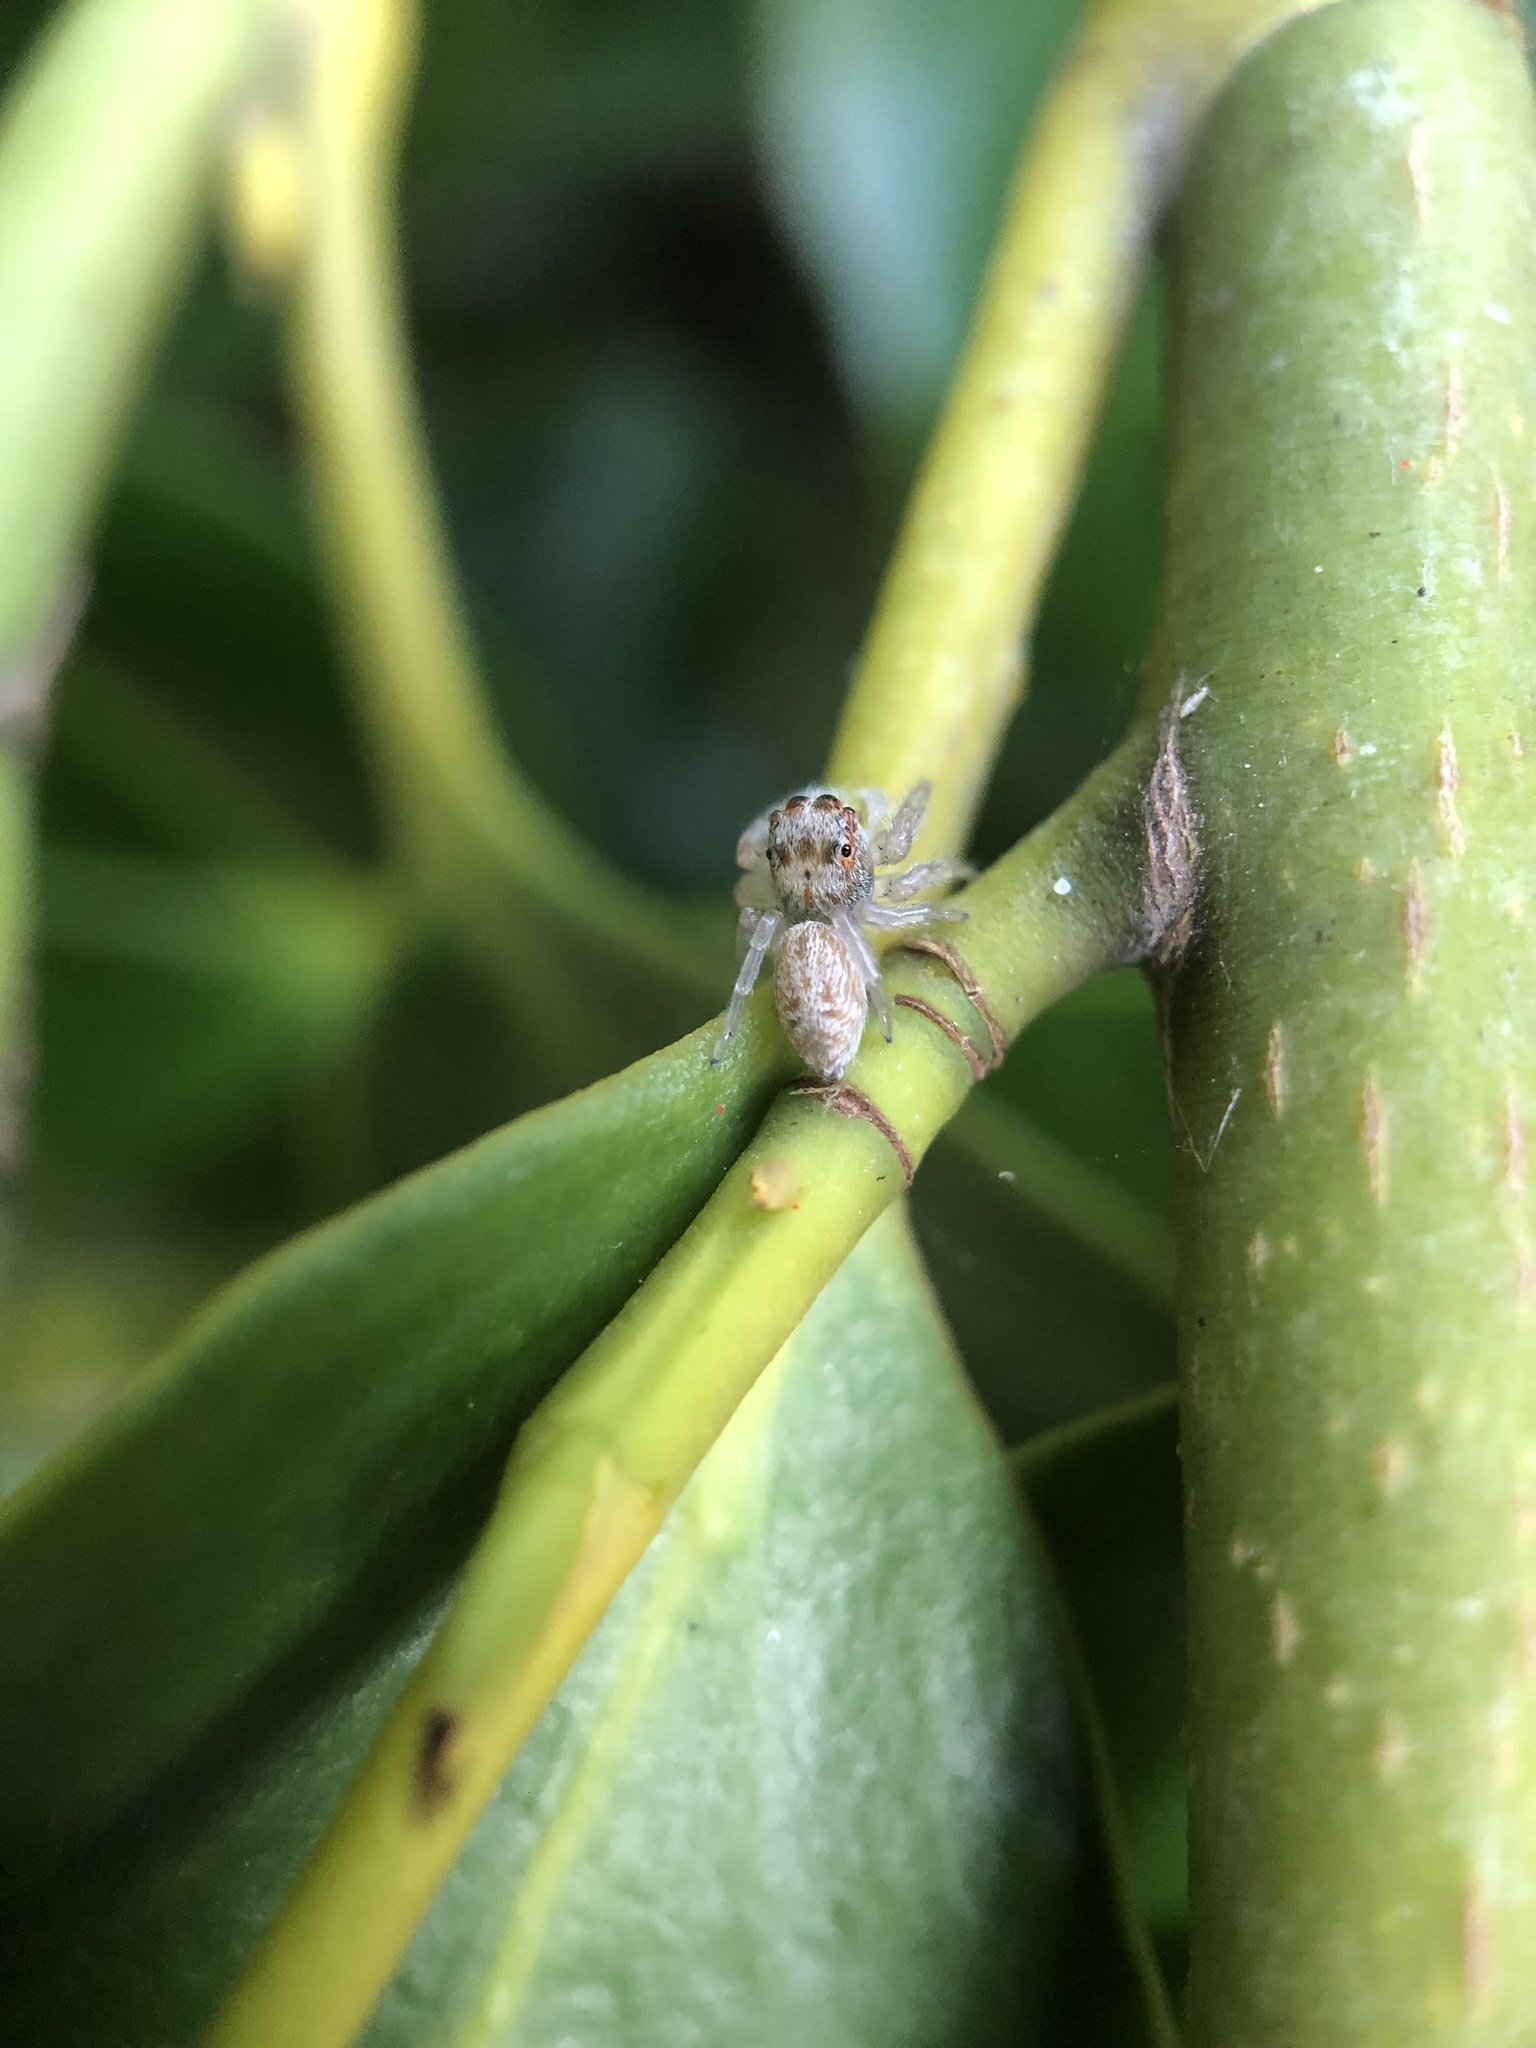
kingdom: Animalia
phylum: Arthropoda
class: Arachnida
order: Araneae
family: Salticidae
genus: Opisthoncus
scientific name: Opisthoncus polyphemus
